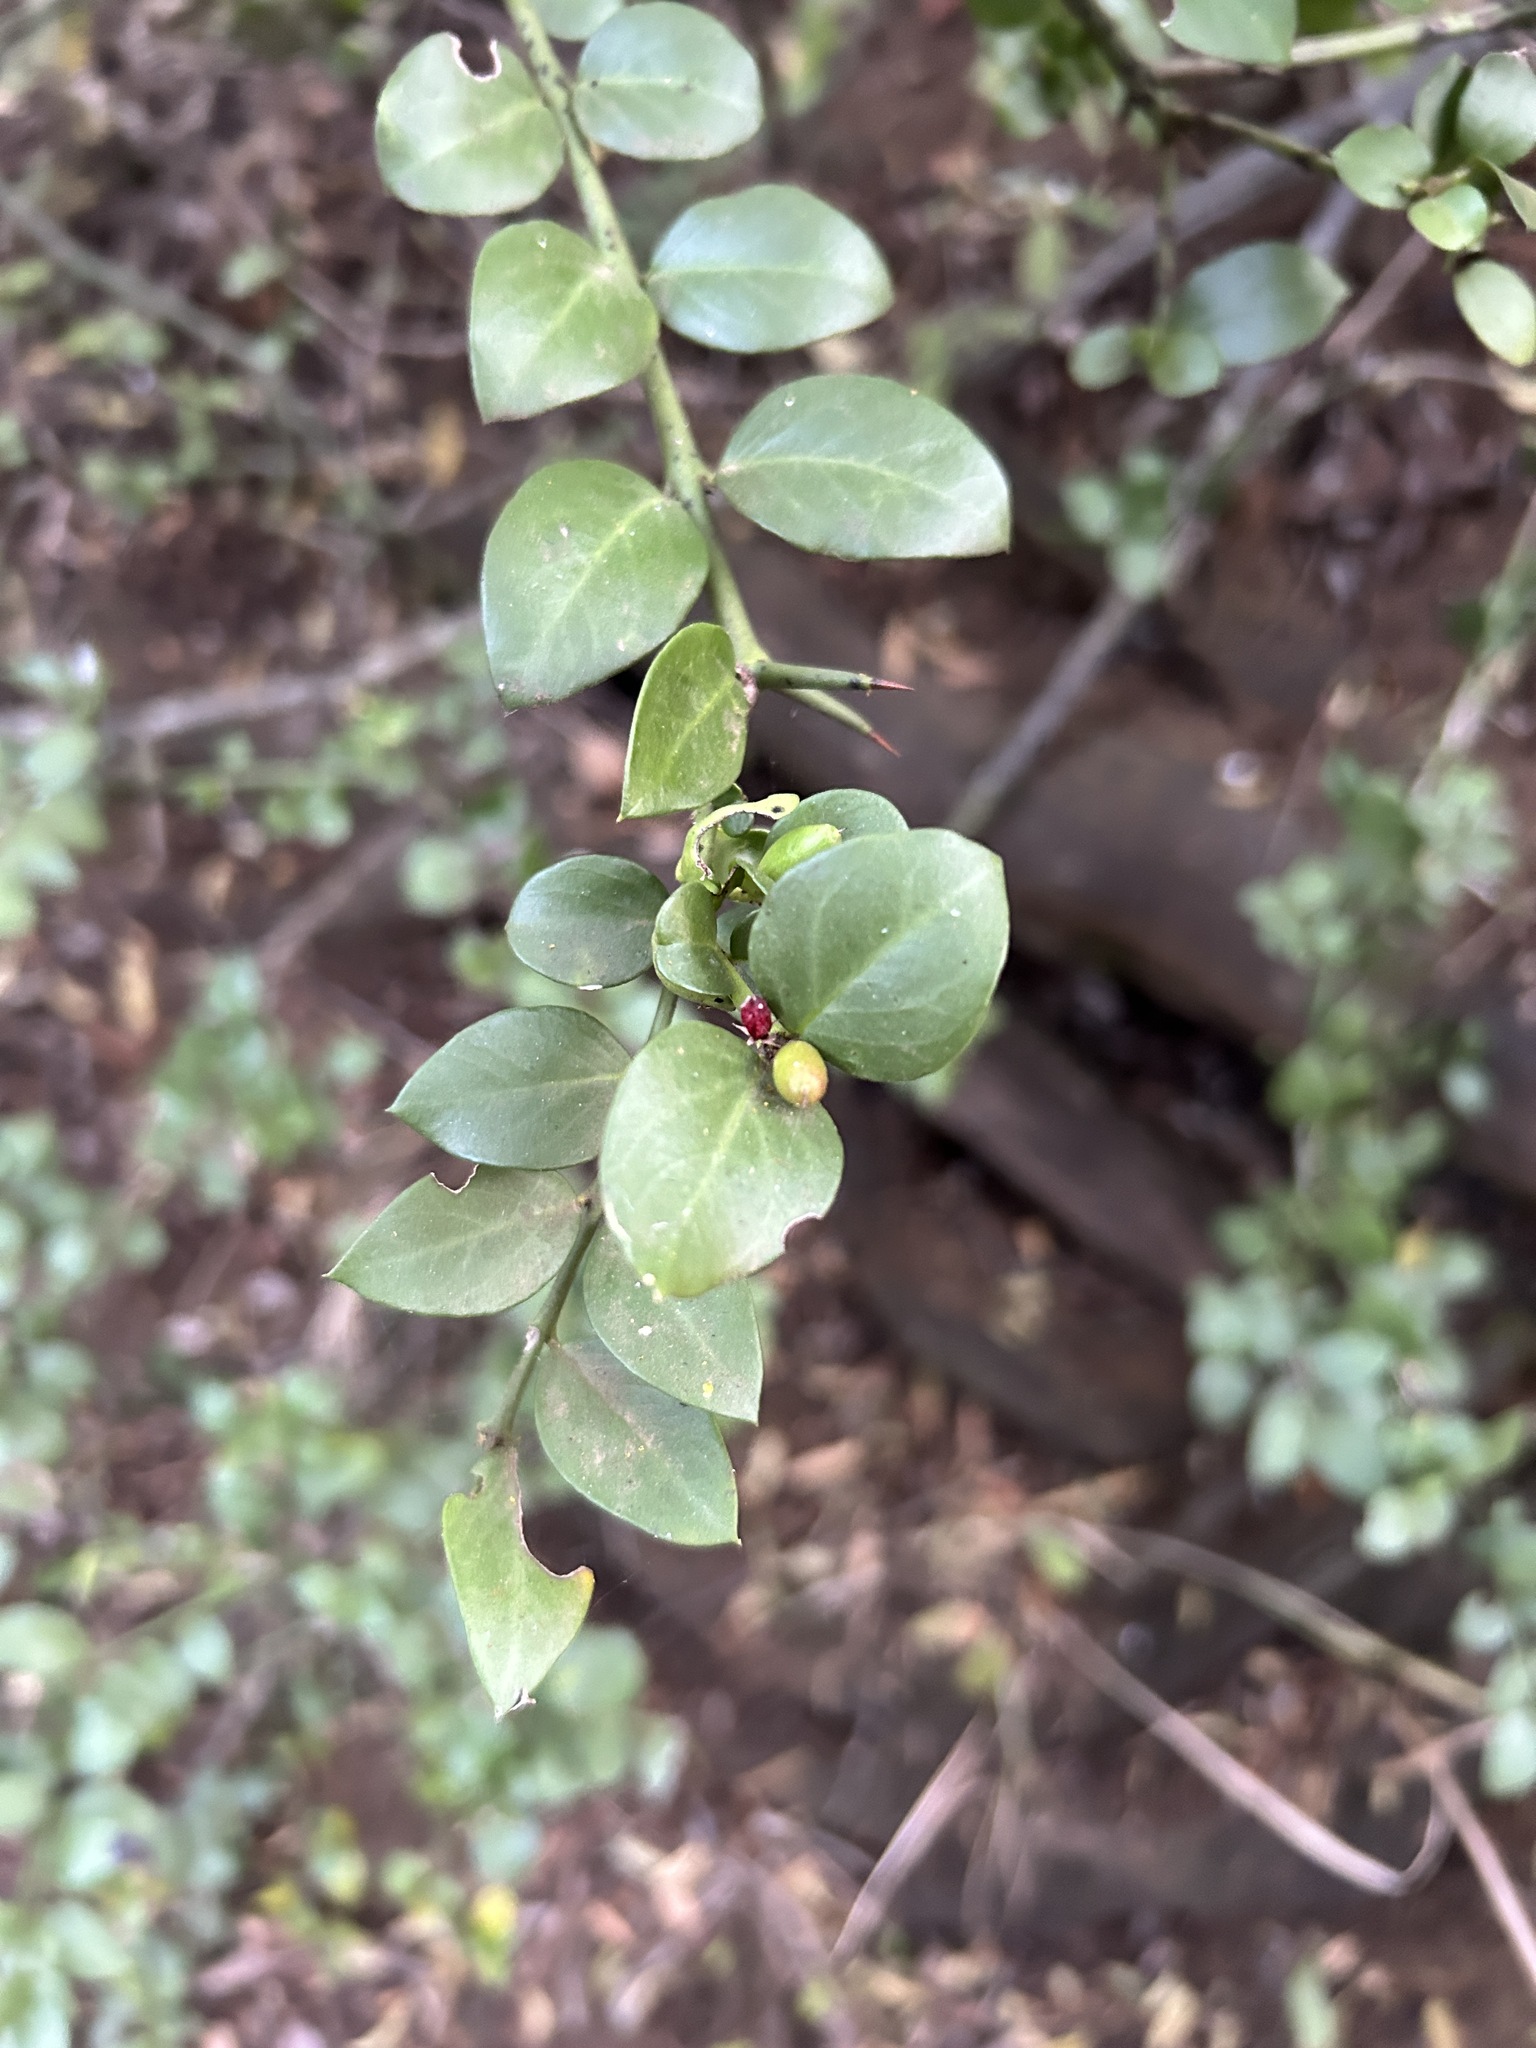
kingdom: Plantae
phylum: Tracheophyta
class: Magnoliopsida
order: Gentianales
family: Apocynaceae
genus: Carissa
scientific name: Carissa bispinosa
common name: Forest num-num
